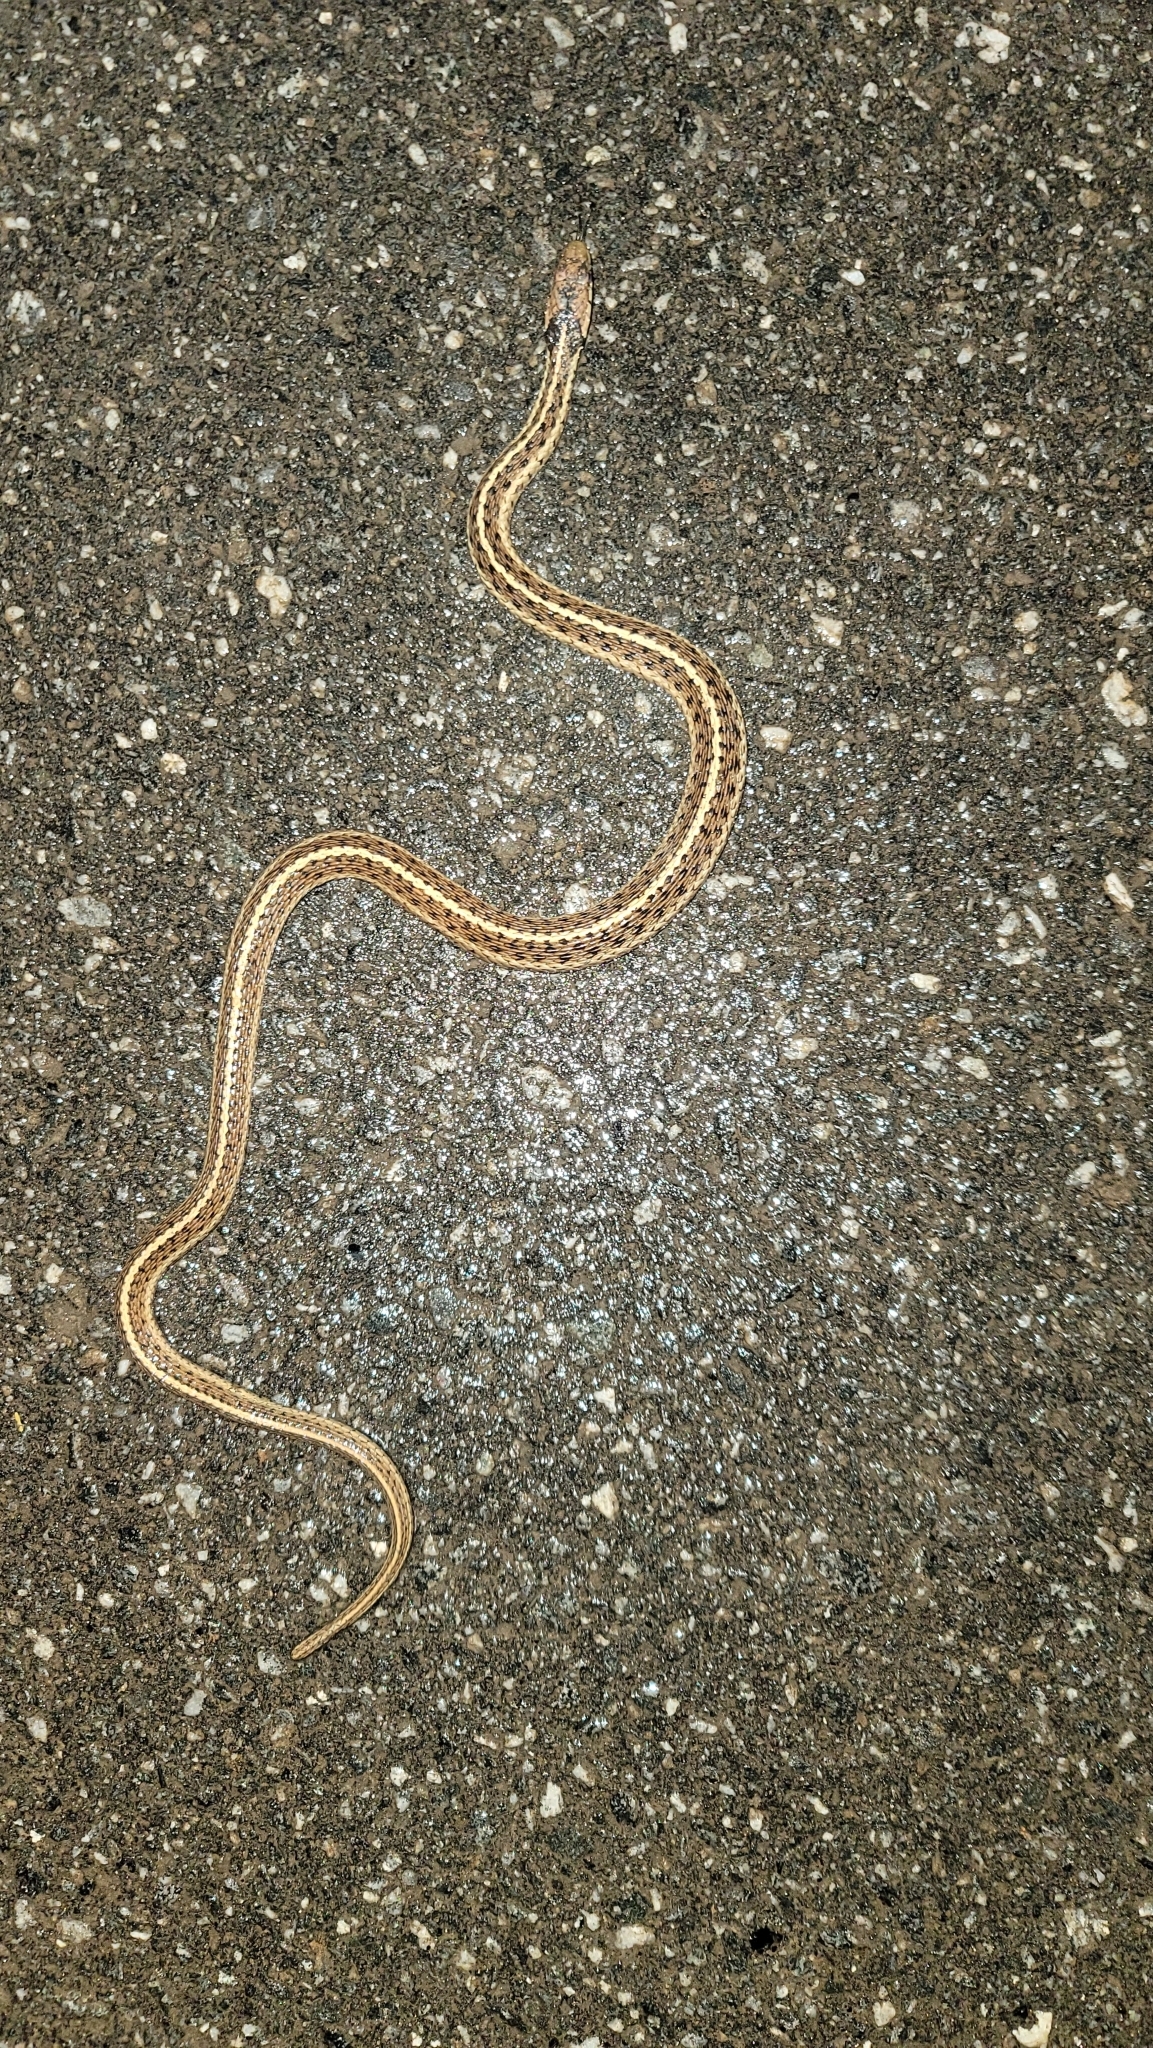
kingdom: Animalia
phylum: Chordata
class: Squamata
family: Colubridae
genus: Thamnophis
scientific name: Thamnophis sirtalis
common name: Common garter snake
